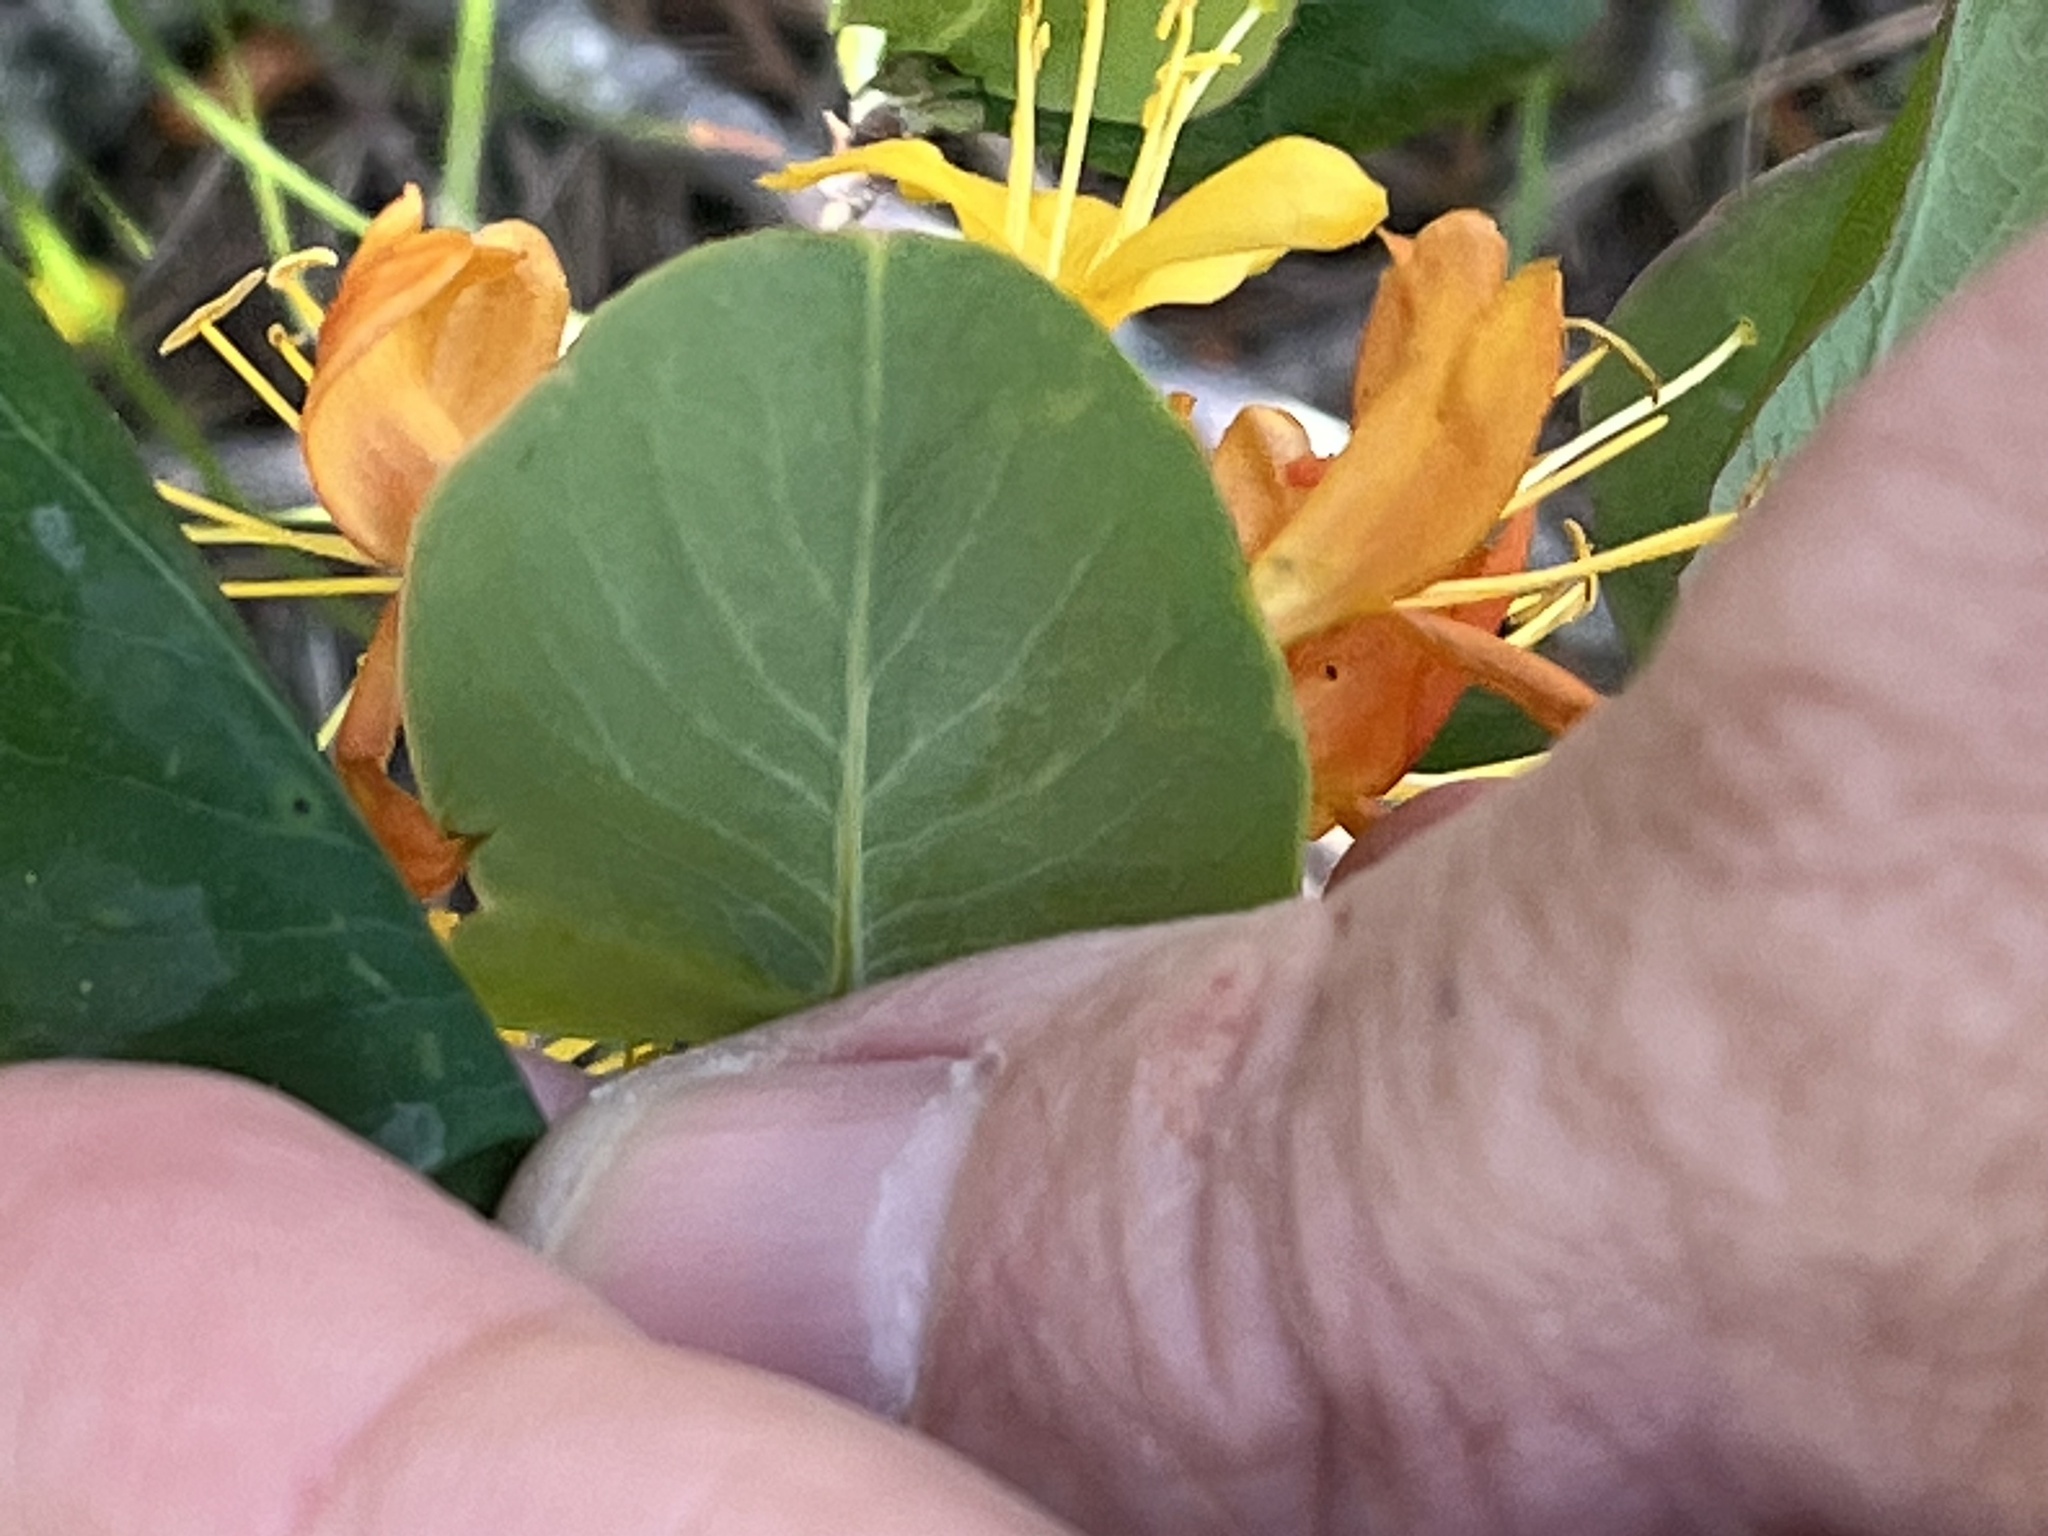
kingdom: Plantae
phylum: Tracheophyta
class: Magnoliopsida
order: Dipsacales
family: Caprifoliaceae
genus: Lonicera
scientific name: Lonicera flava
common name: Yellow honeysuckle
